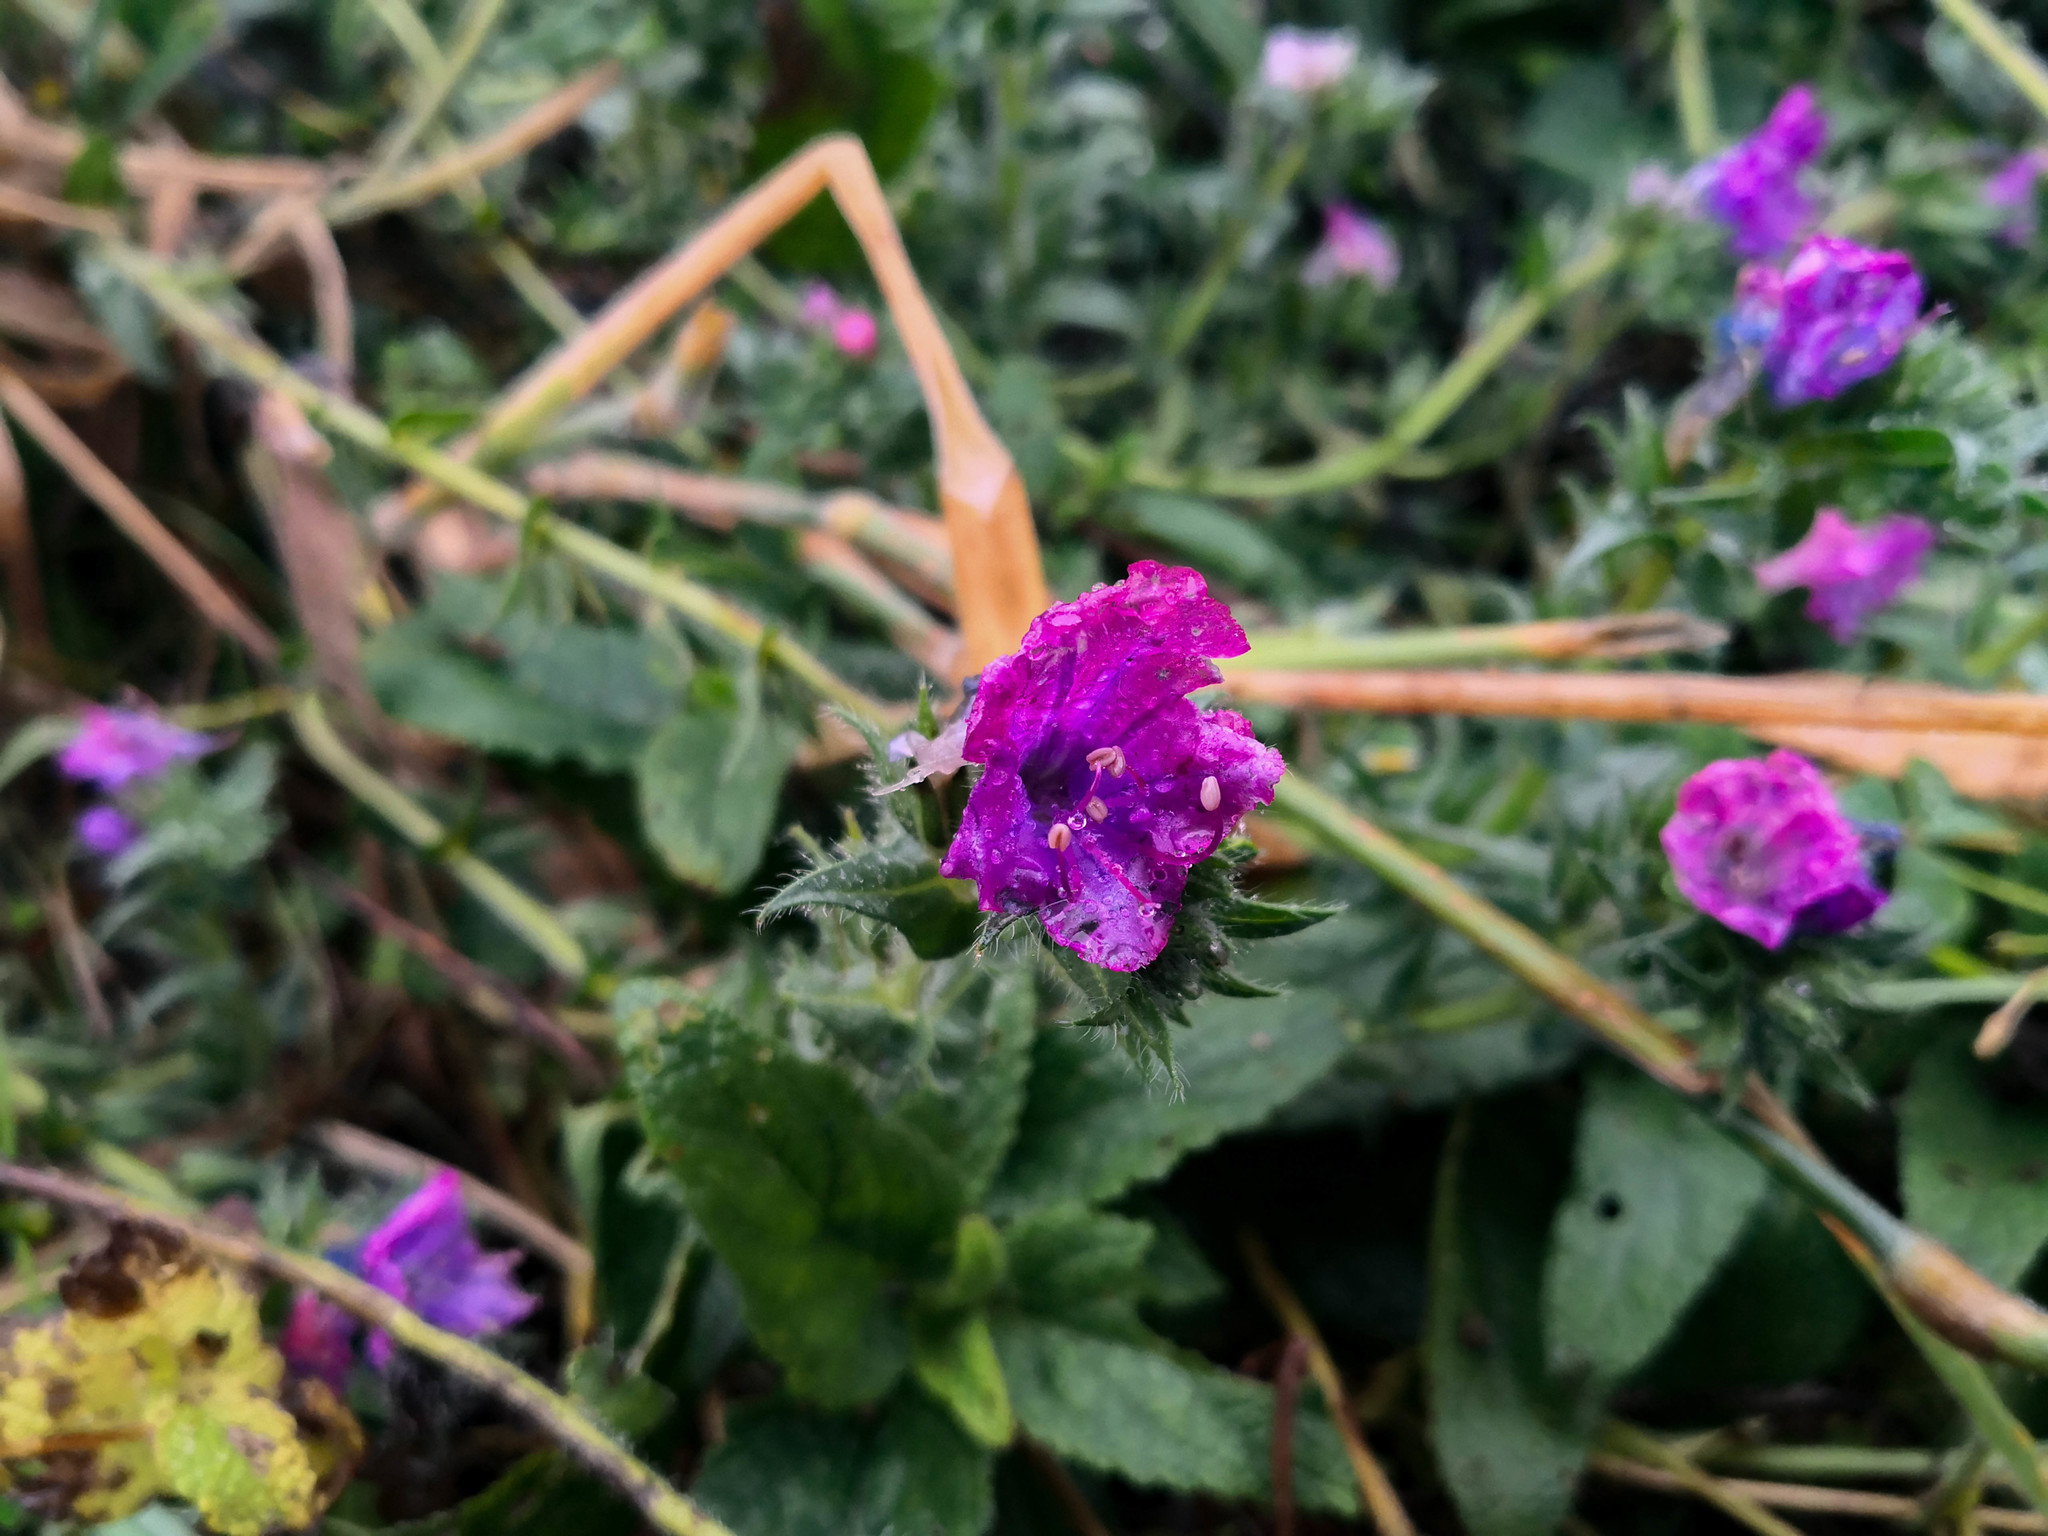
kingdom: Plantae
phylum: Tracheophyta
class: Magnoliopsida
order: Boraginales
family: Boraginaceae
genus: Echium
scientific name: Echium plantagineum
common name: Purple viper's-bugloss
